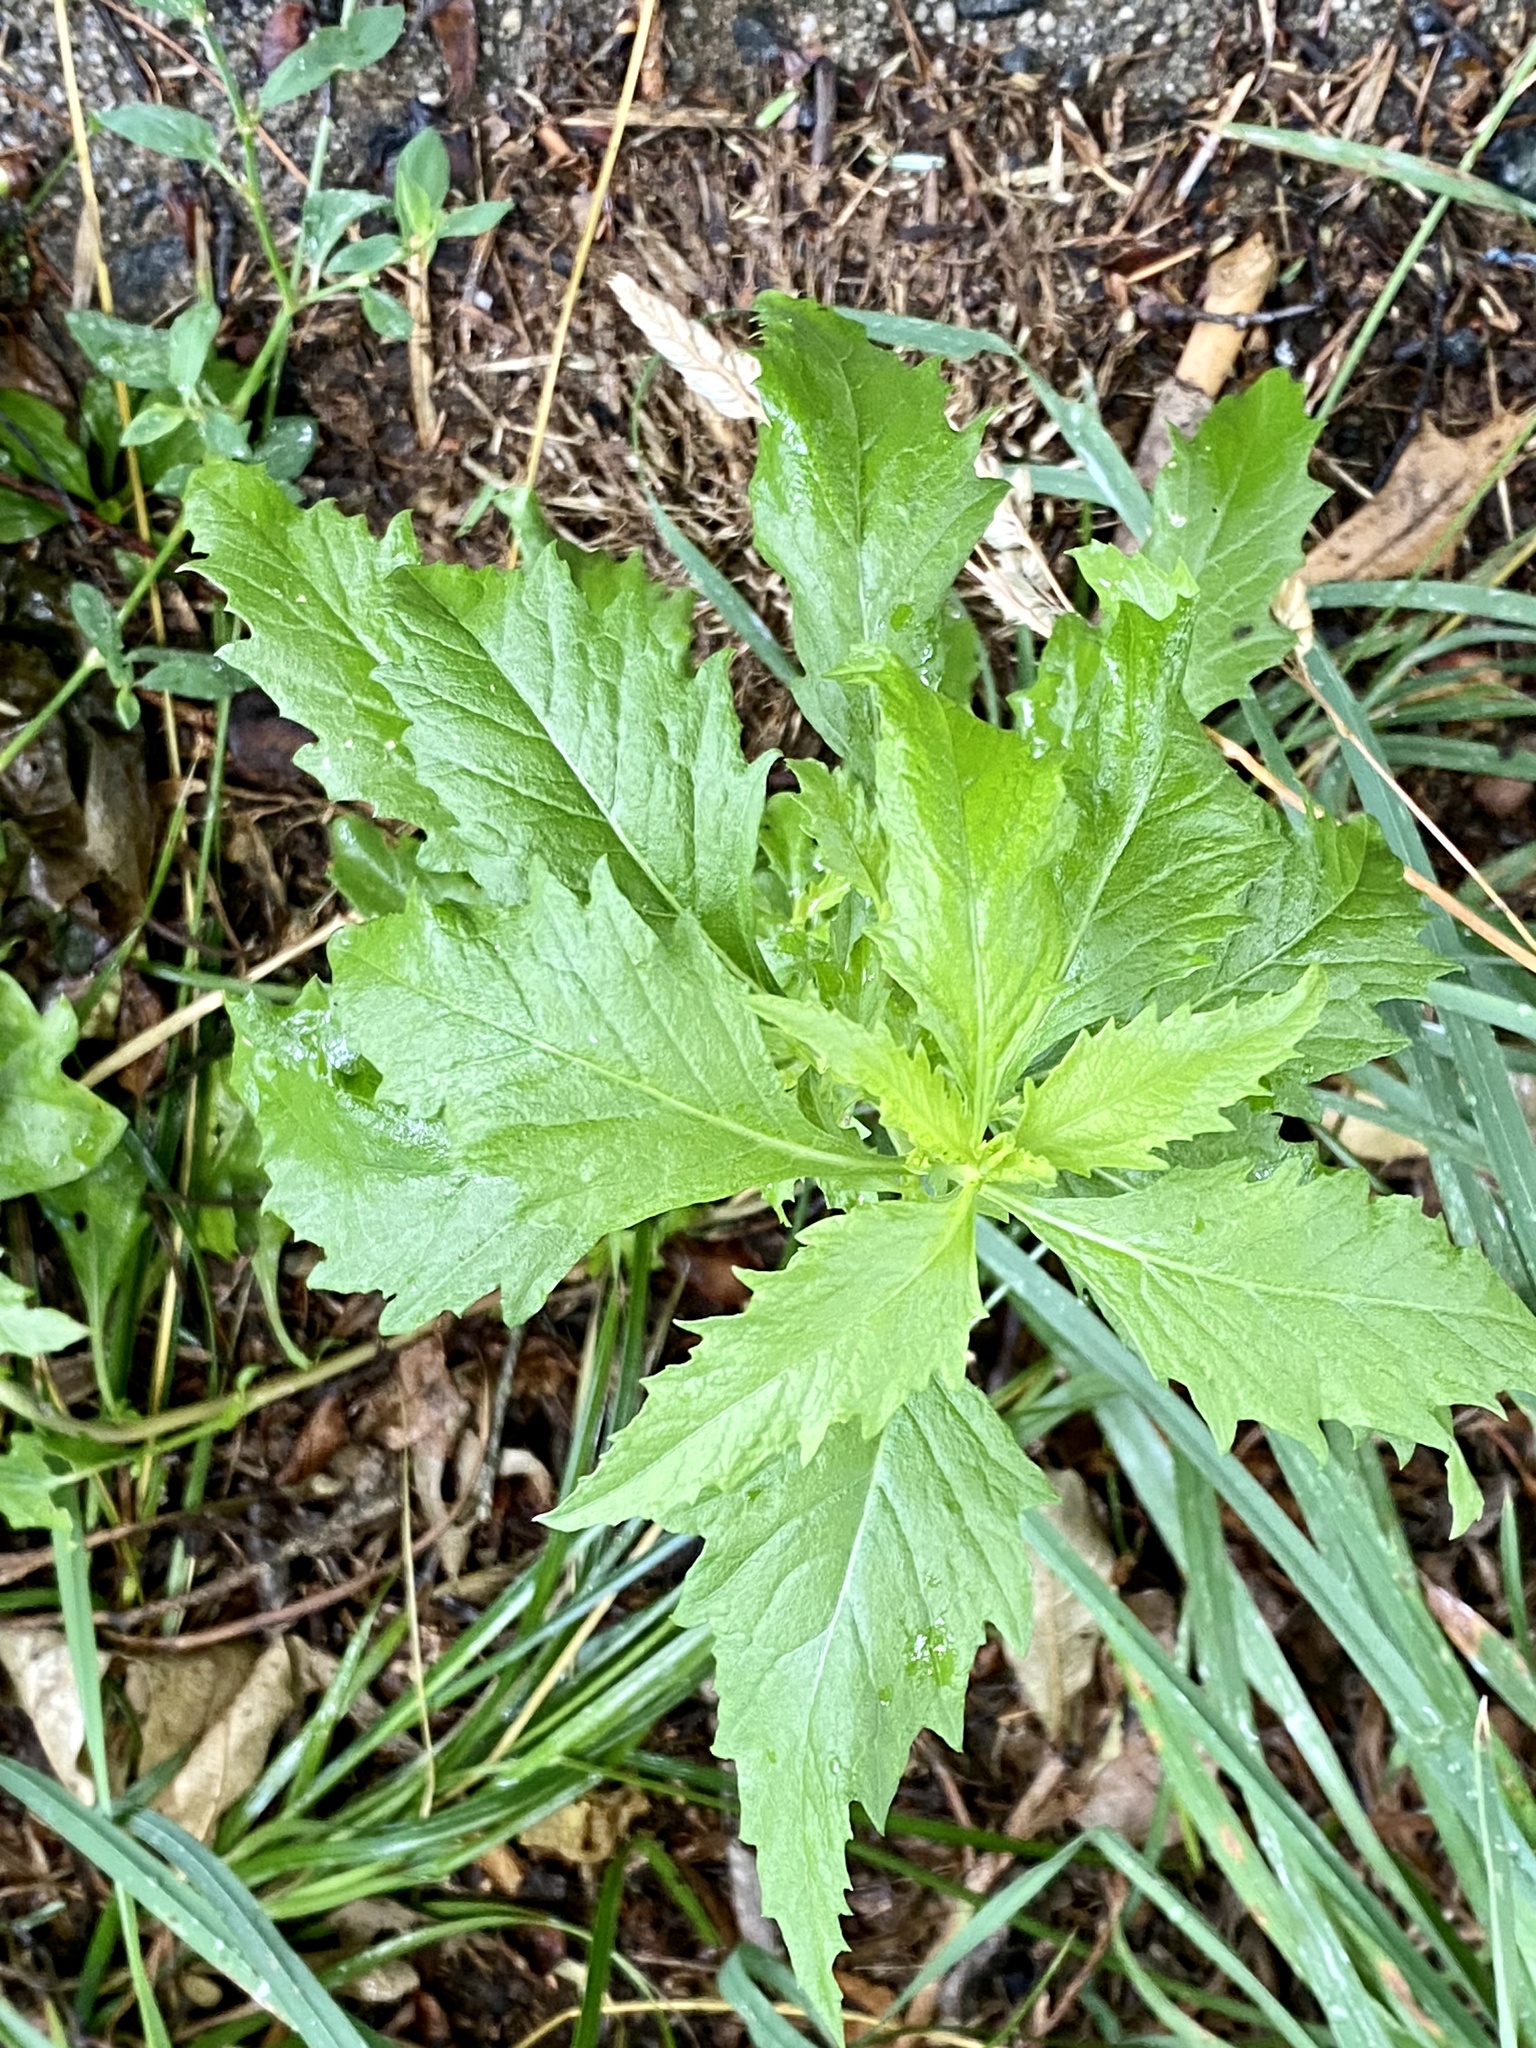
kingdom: Plantae
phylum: Tracheophyta
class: Magnoliopsida
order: Caryophyllales
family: Amaranthaceae
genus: Dysphania
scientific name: Dysphania ambrosioides
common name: Wormseed
